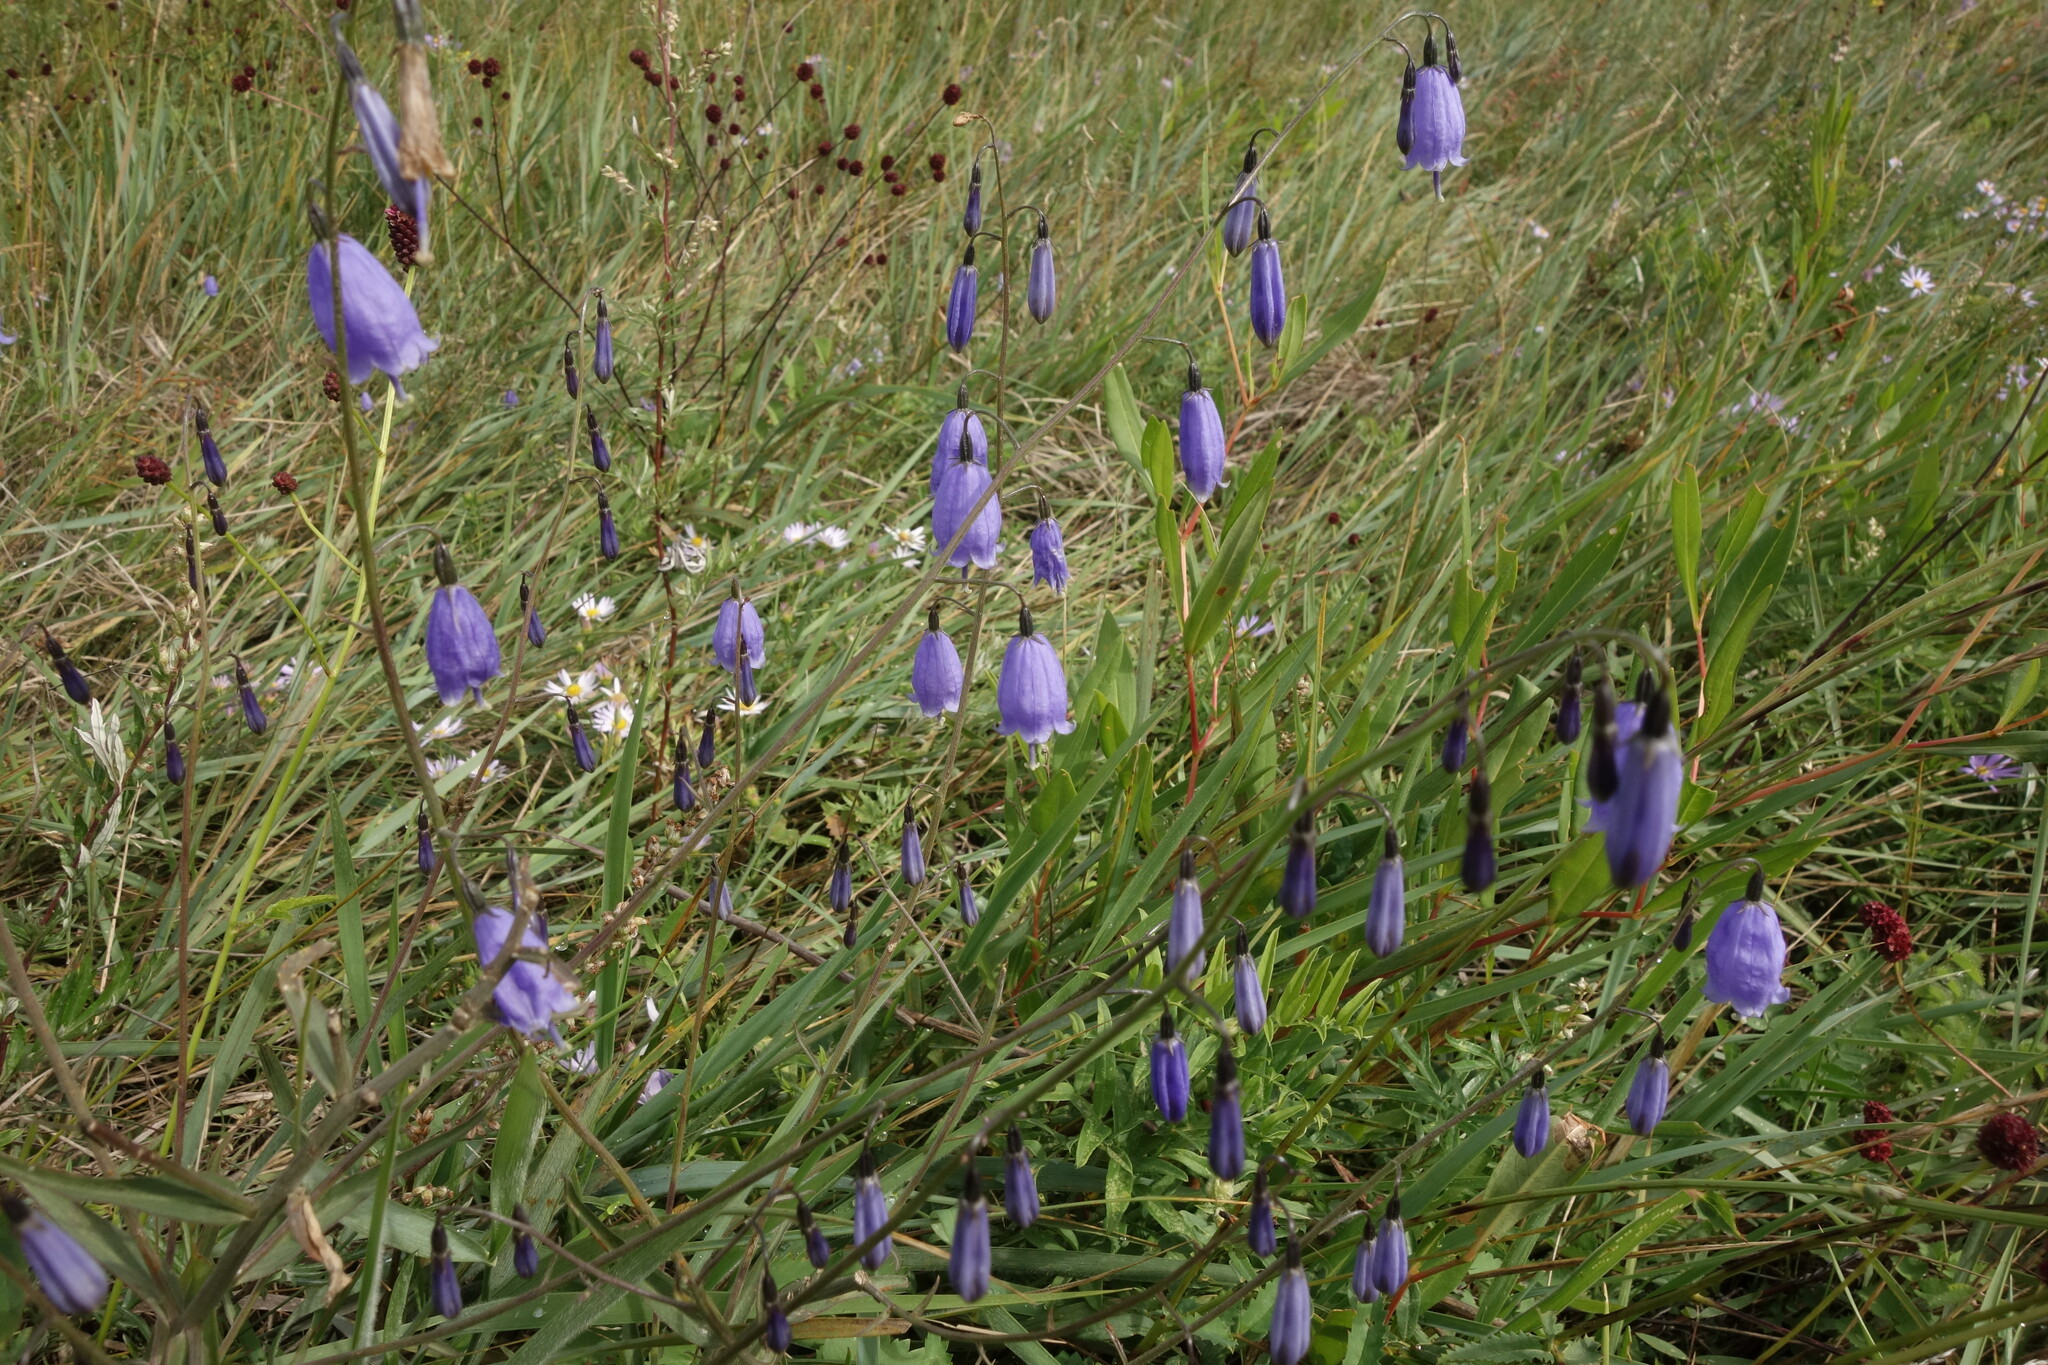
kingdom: Plantae
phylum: Tracheophyta
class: Magnoliopsida
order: Asterales
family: Campanulaceae
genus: Adenophora
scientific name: Adenophora stenanthina
